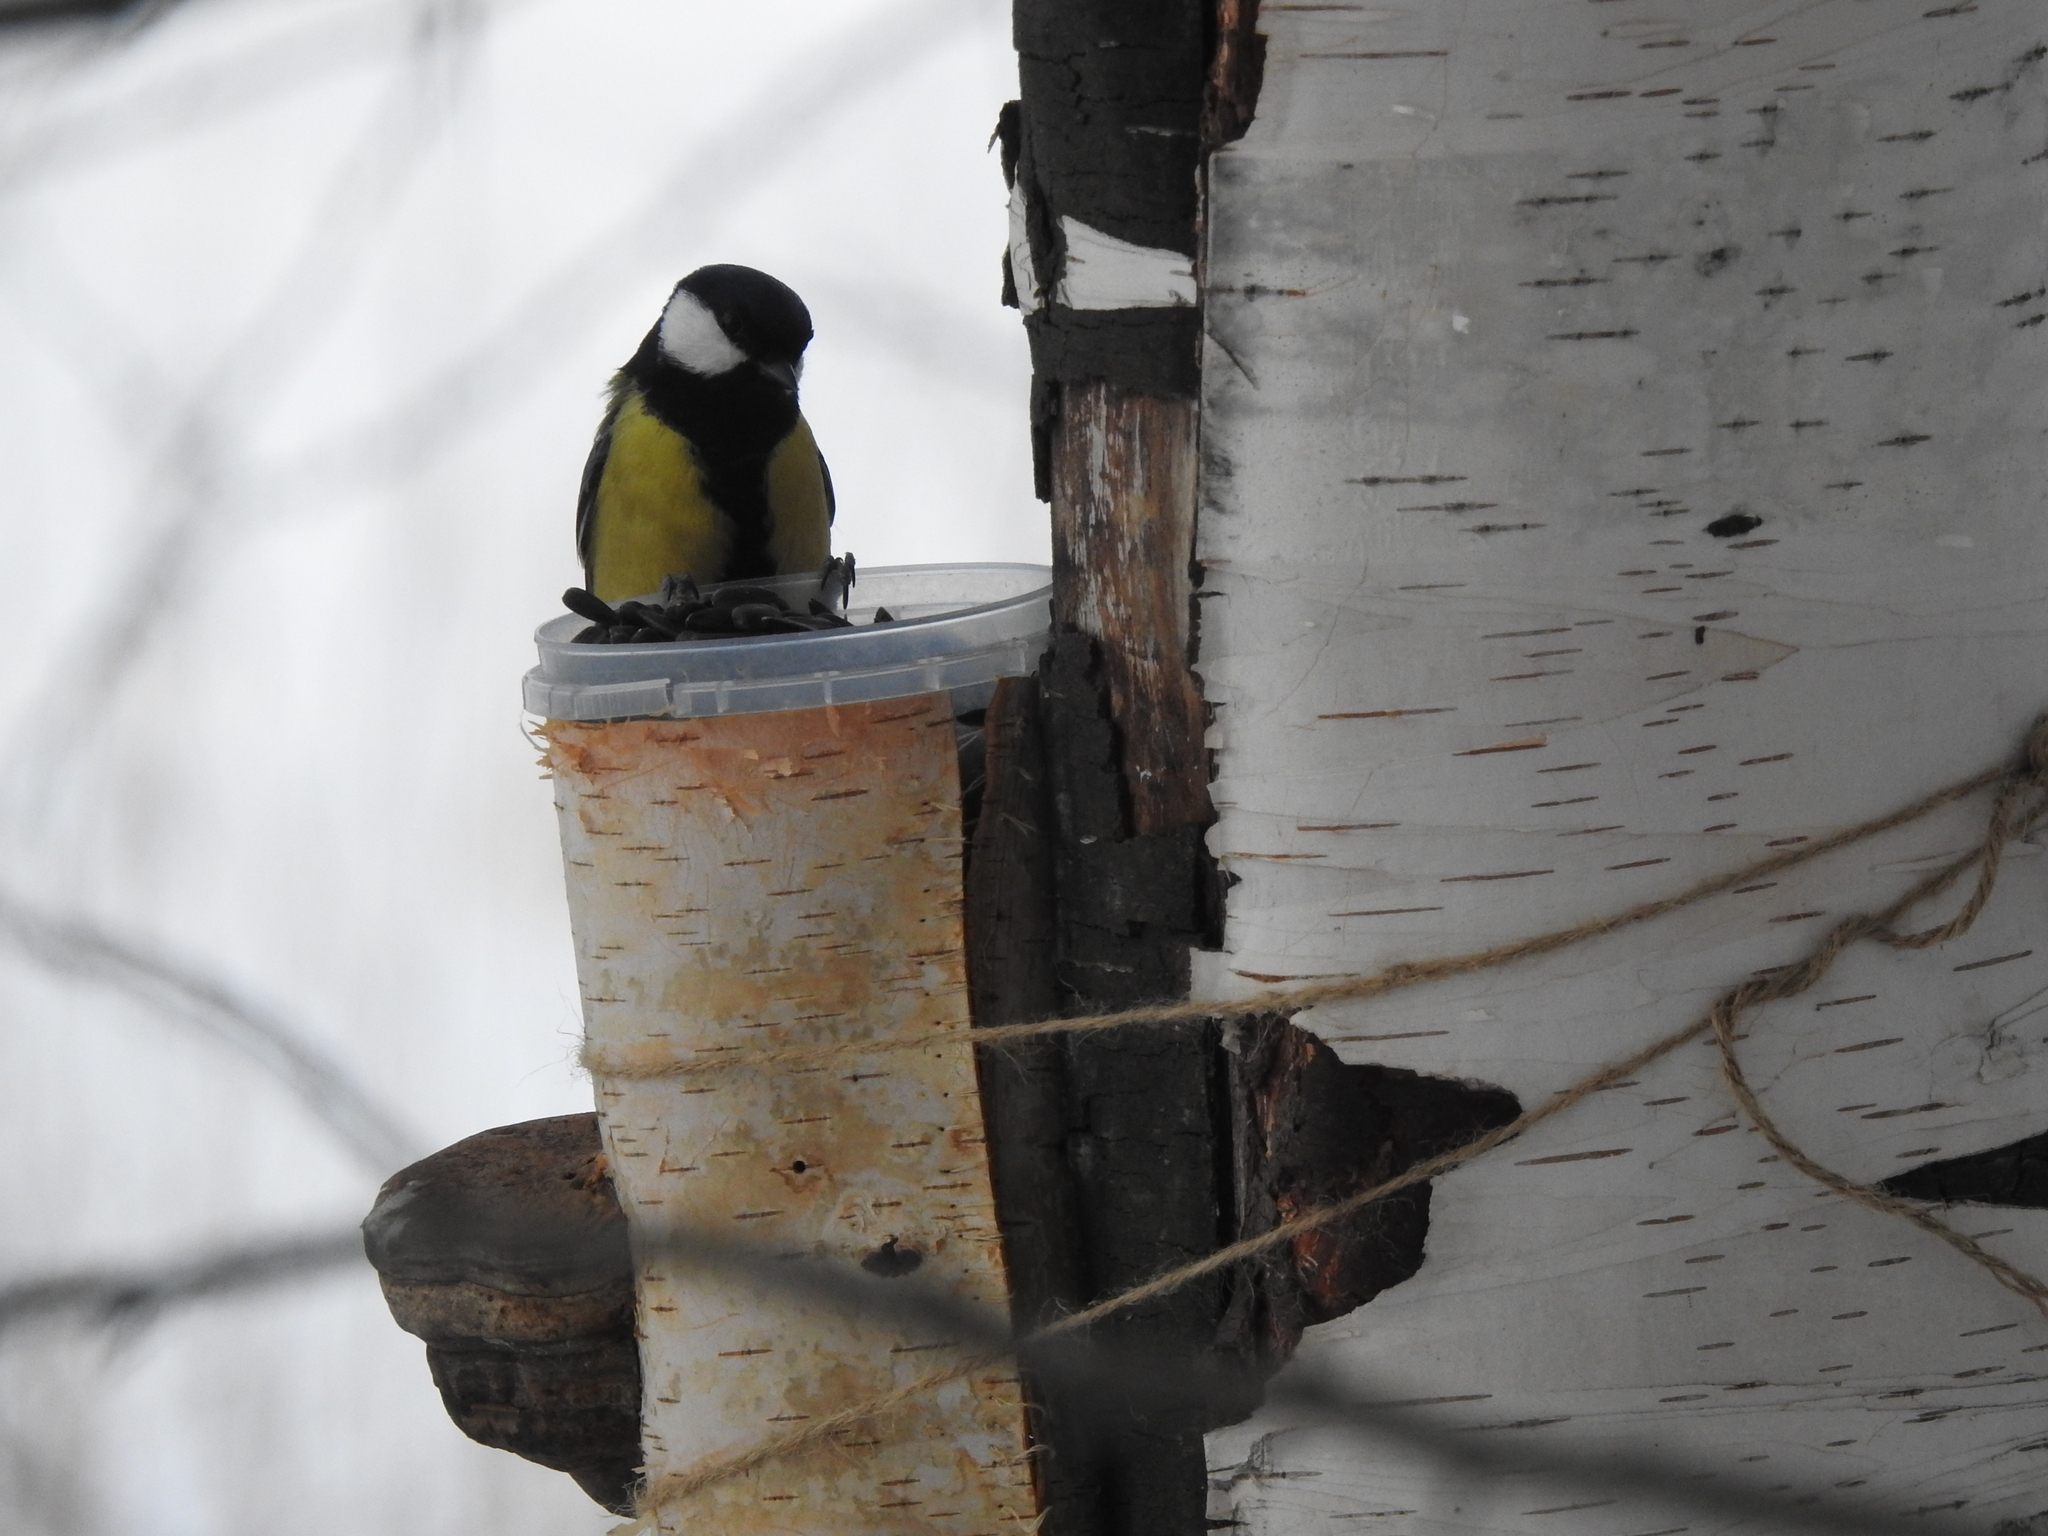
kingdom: Animalia
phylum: Chordata
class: Aves
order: Passeriformes
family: Paridae
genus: Parus
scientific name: Parus major
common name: Great tit
